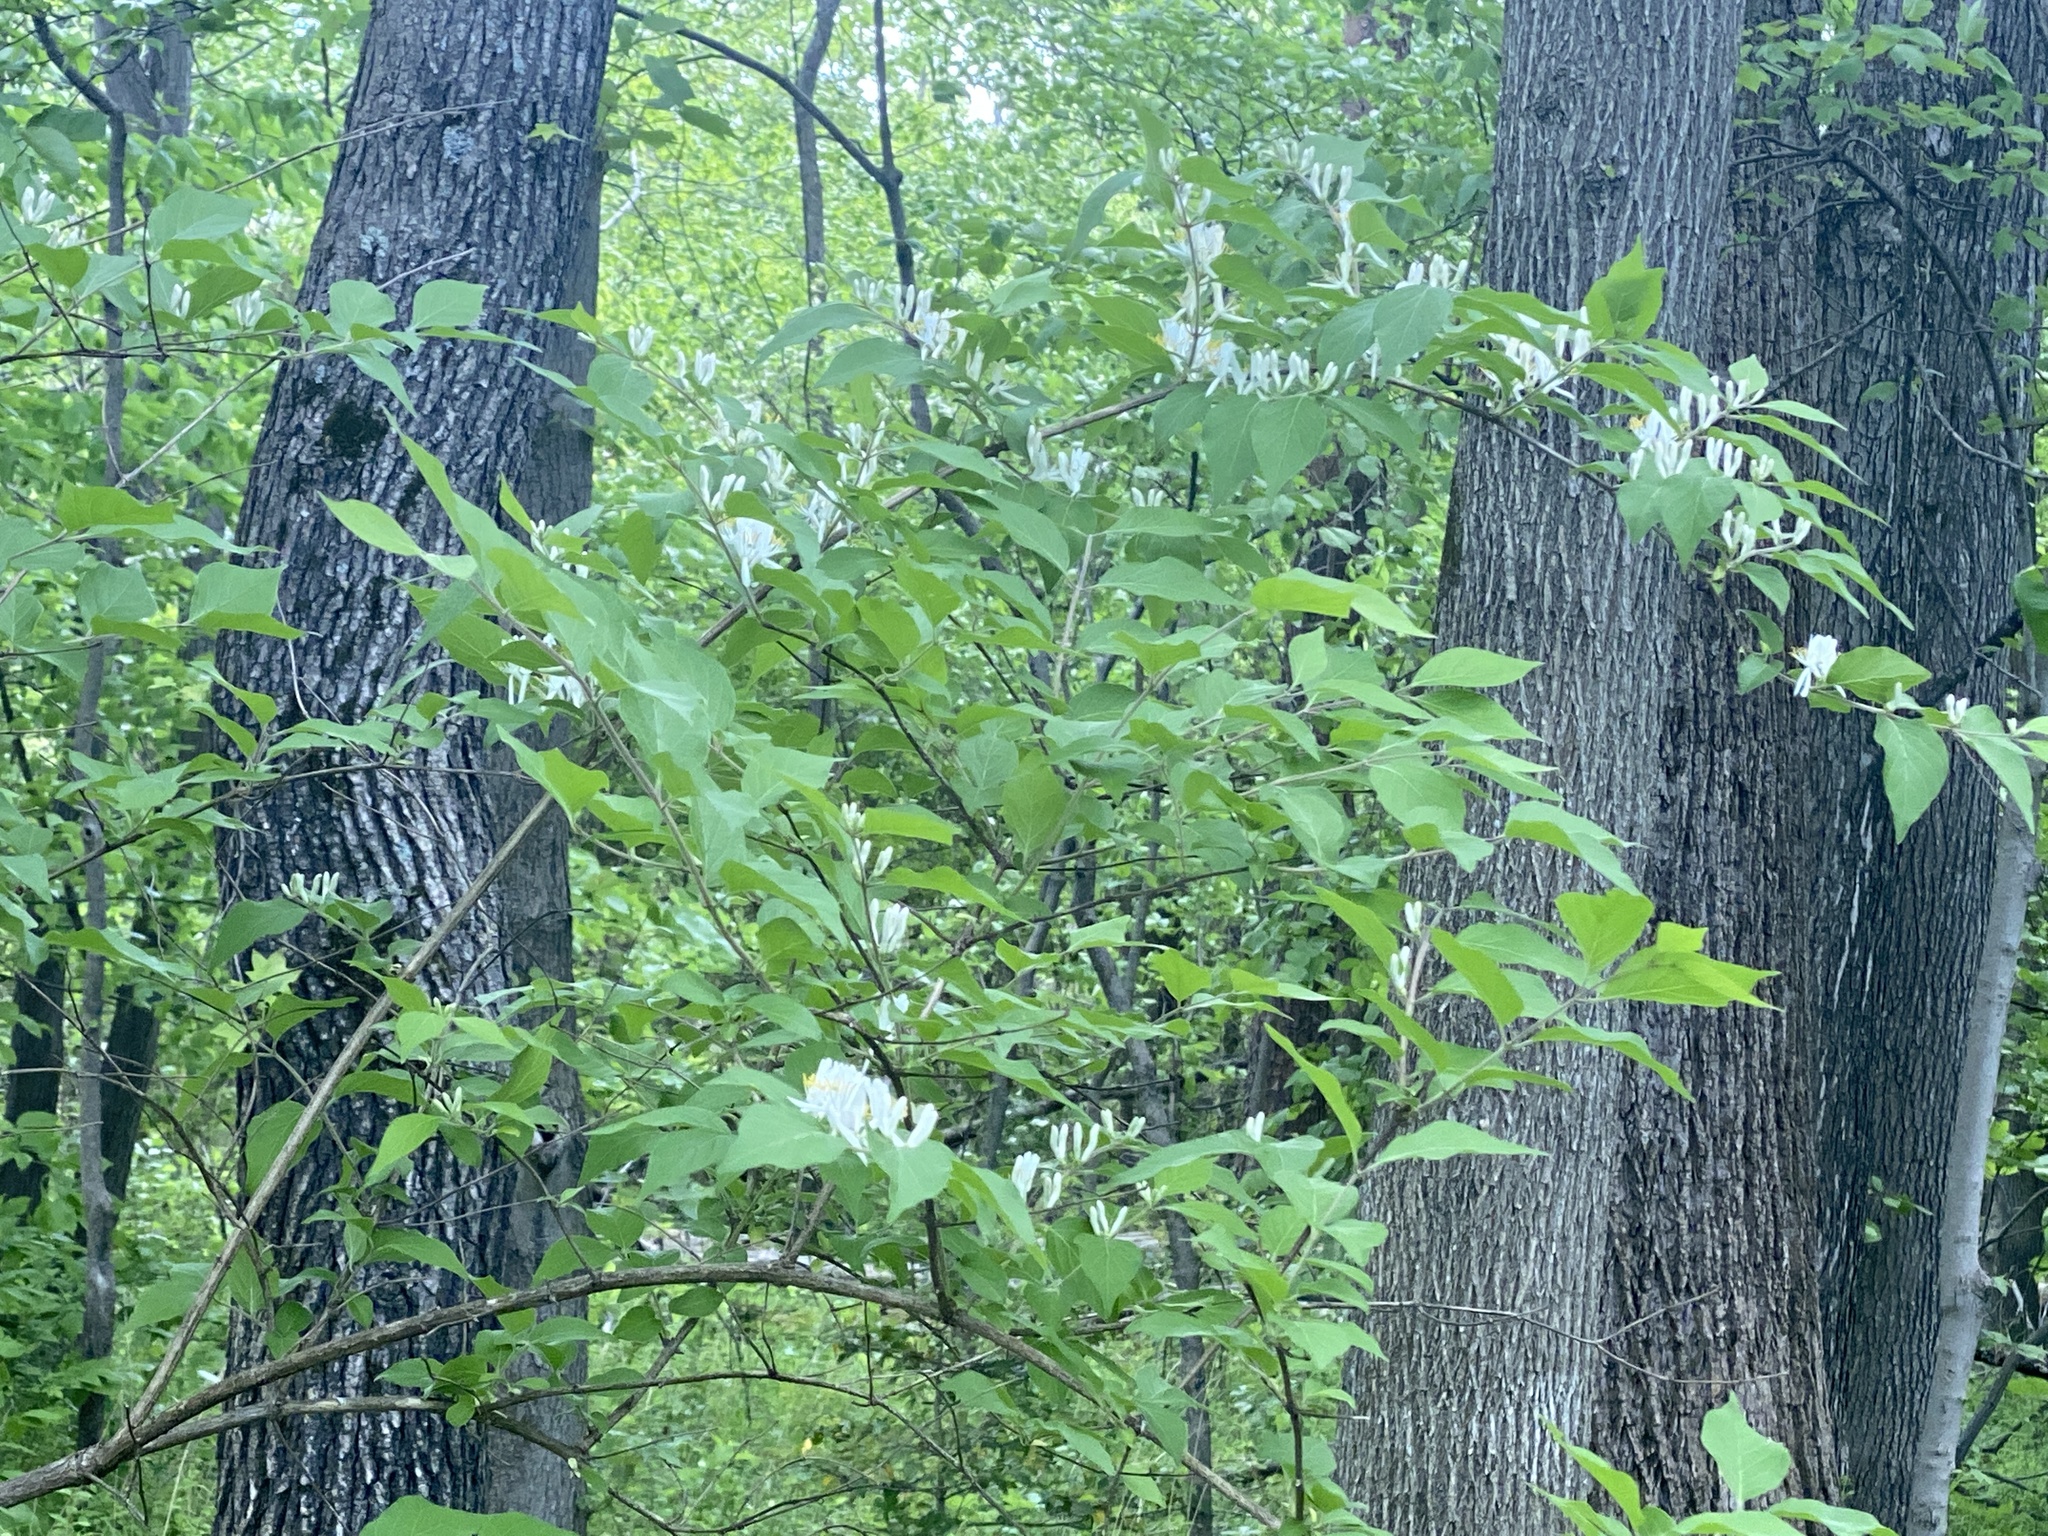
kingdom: Plantae
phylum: Tracheophyta
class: Magnoliopsida
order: Dipsacales
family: Caprifoliaceae
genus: Lonicera
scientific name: Lonicera maackii
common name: Amur honeysuckle
